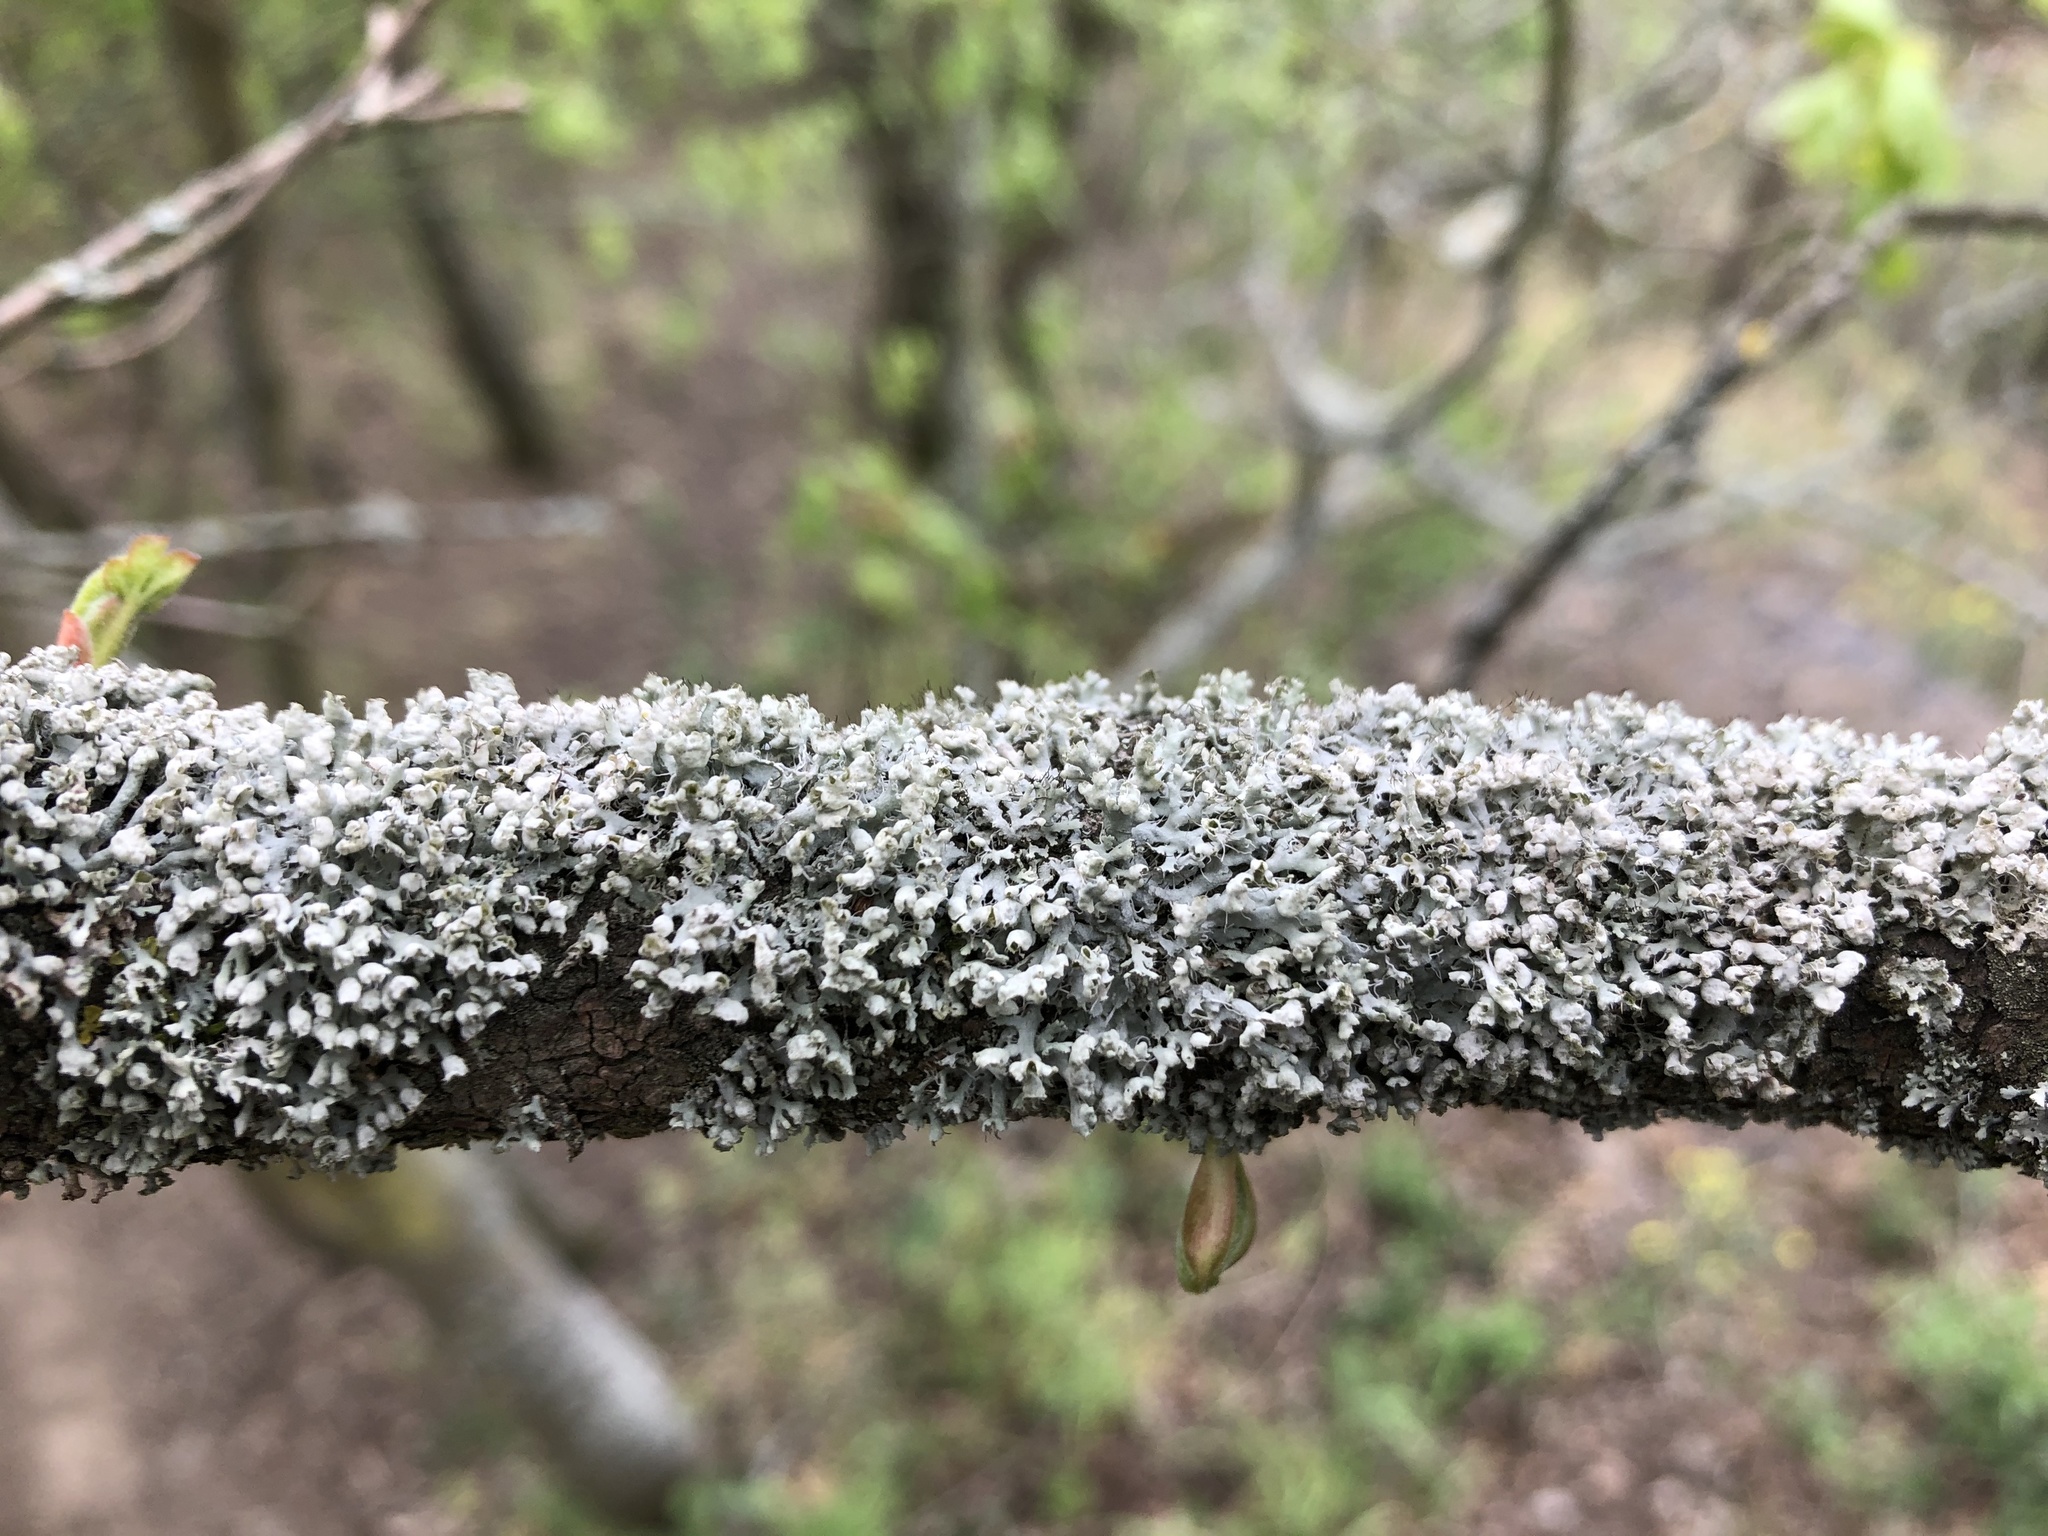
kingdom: Fungi
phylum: Ascomycota
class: Lecanoromycetes
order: Caliciales
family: Physciaceae
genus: Physcia
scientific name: Physcia adscendens
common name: Hooded rosette lichen
